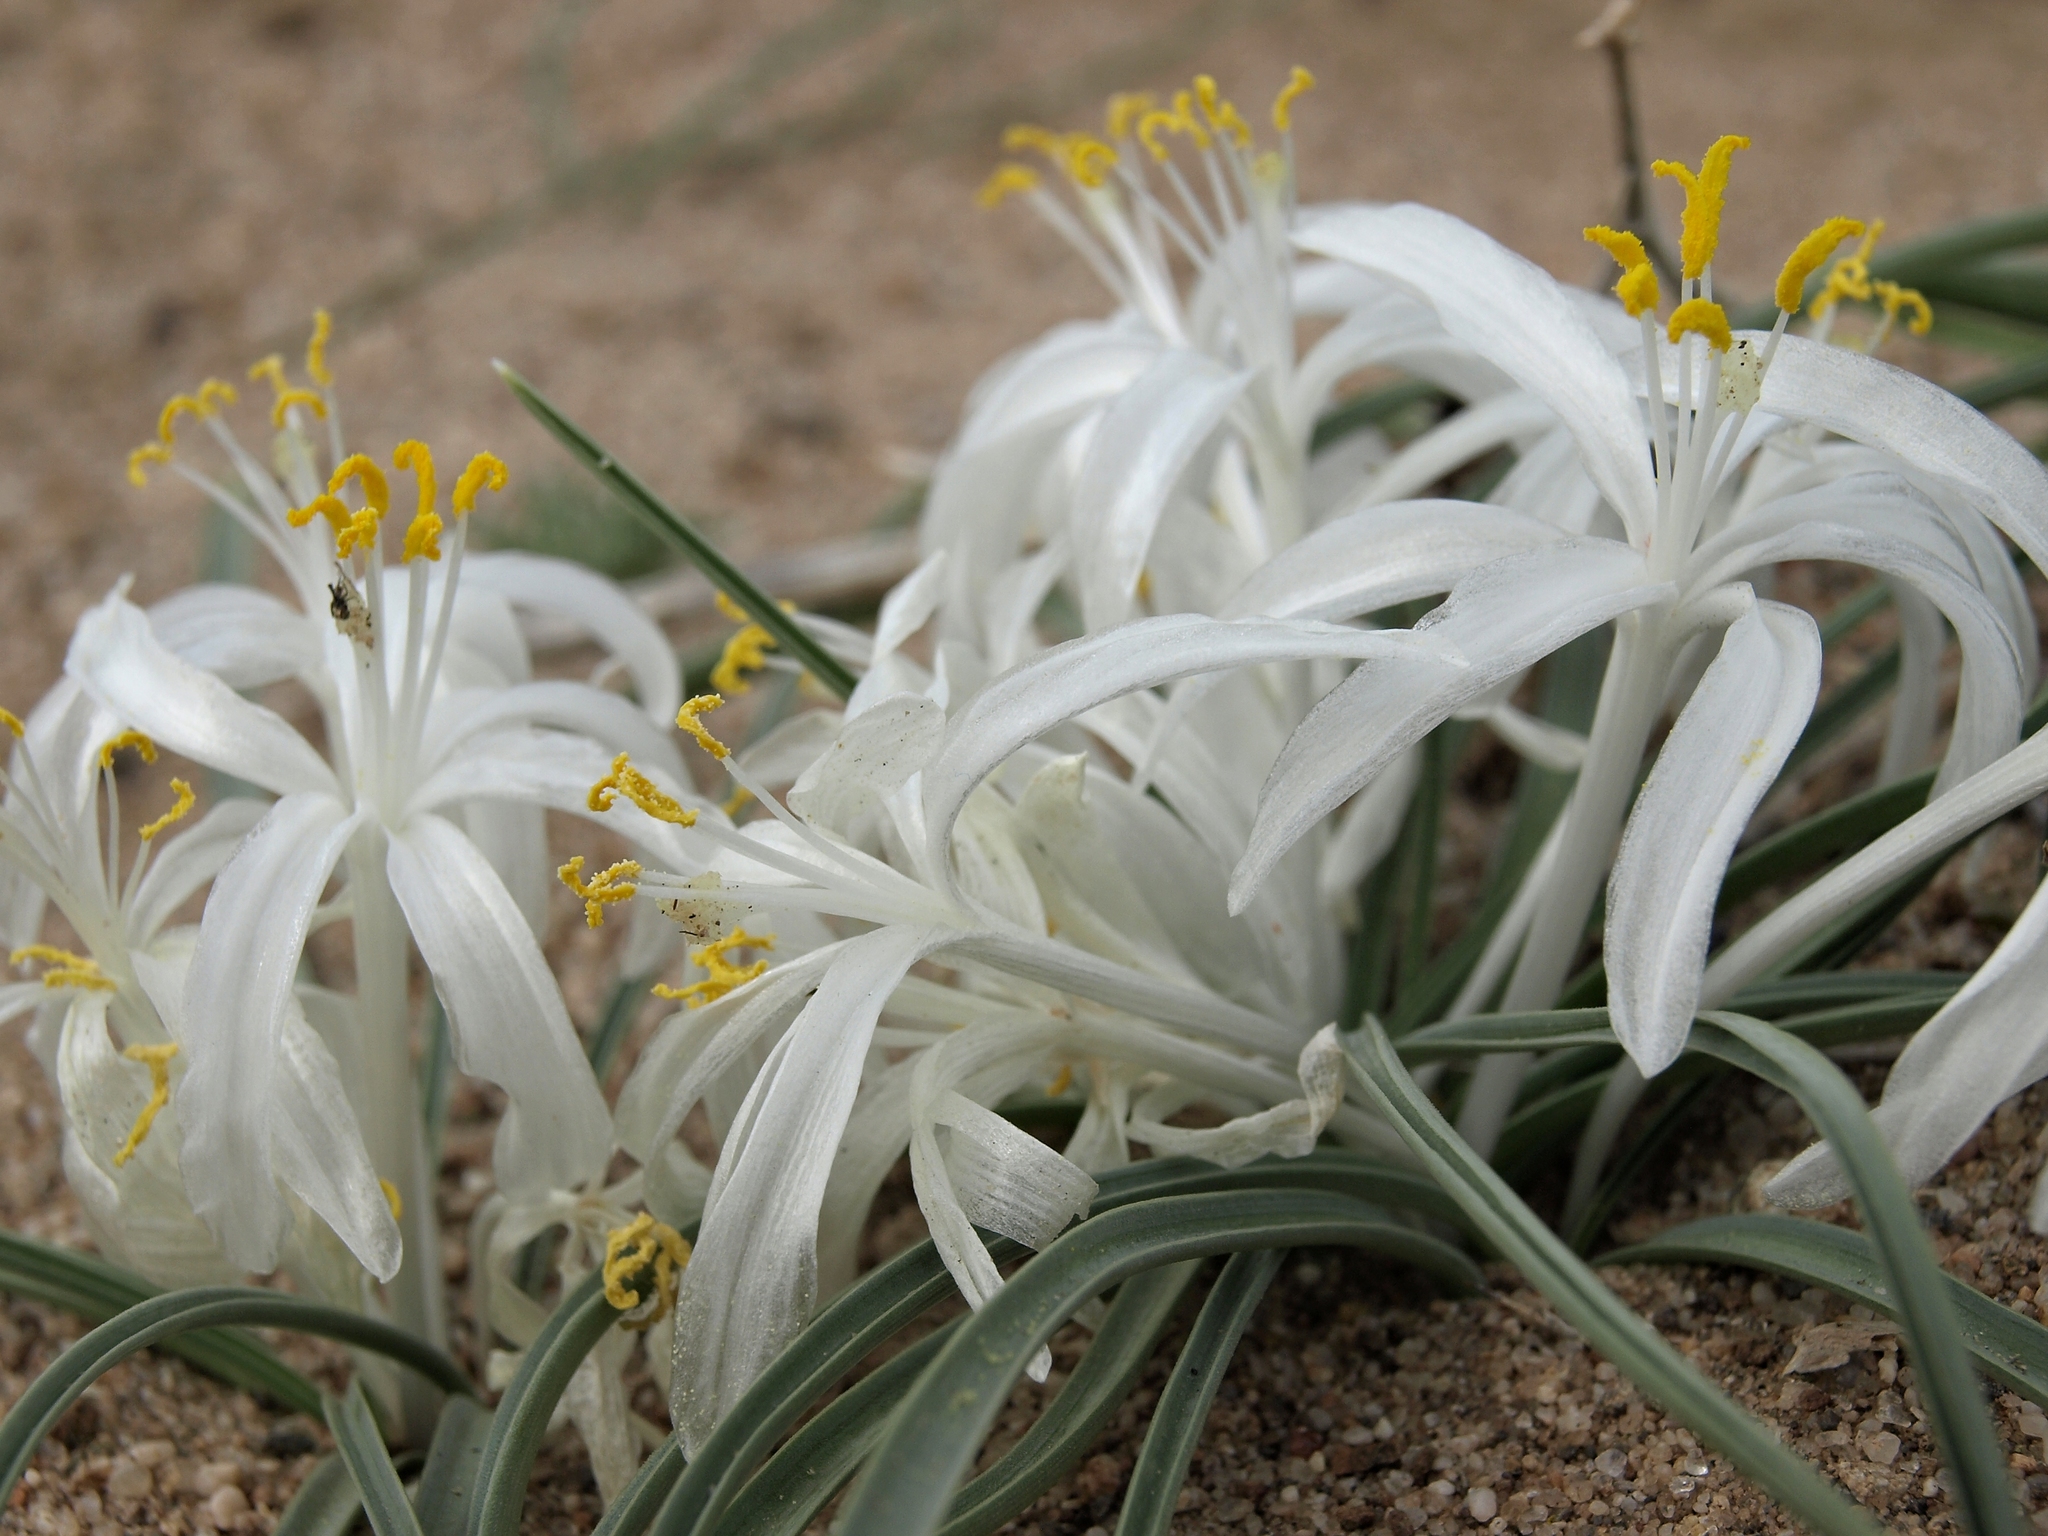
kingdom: Plantae
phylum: Tracheophyta
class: Liliopsida
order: Asparagales
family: Asparagaceae
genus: Leucocrinum
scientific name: Leucocrinum montanum
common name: Mountain-lily
